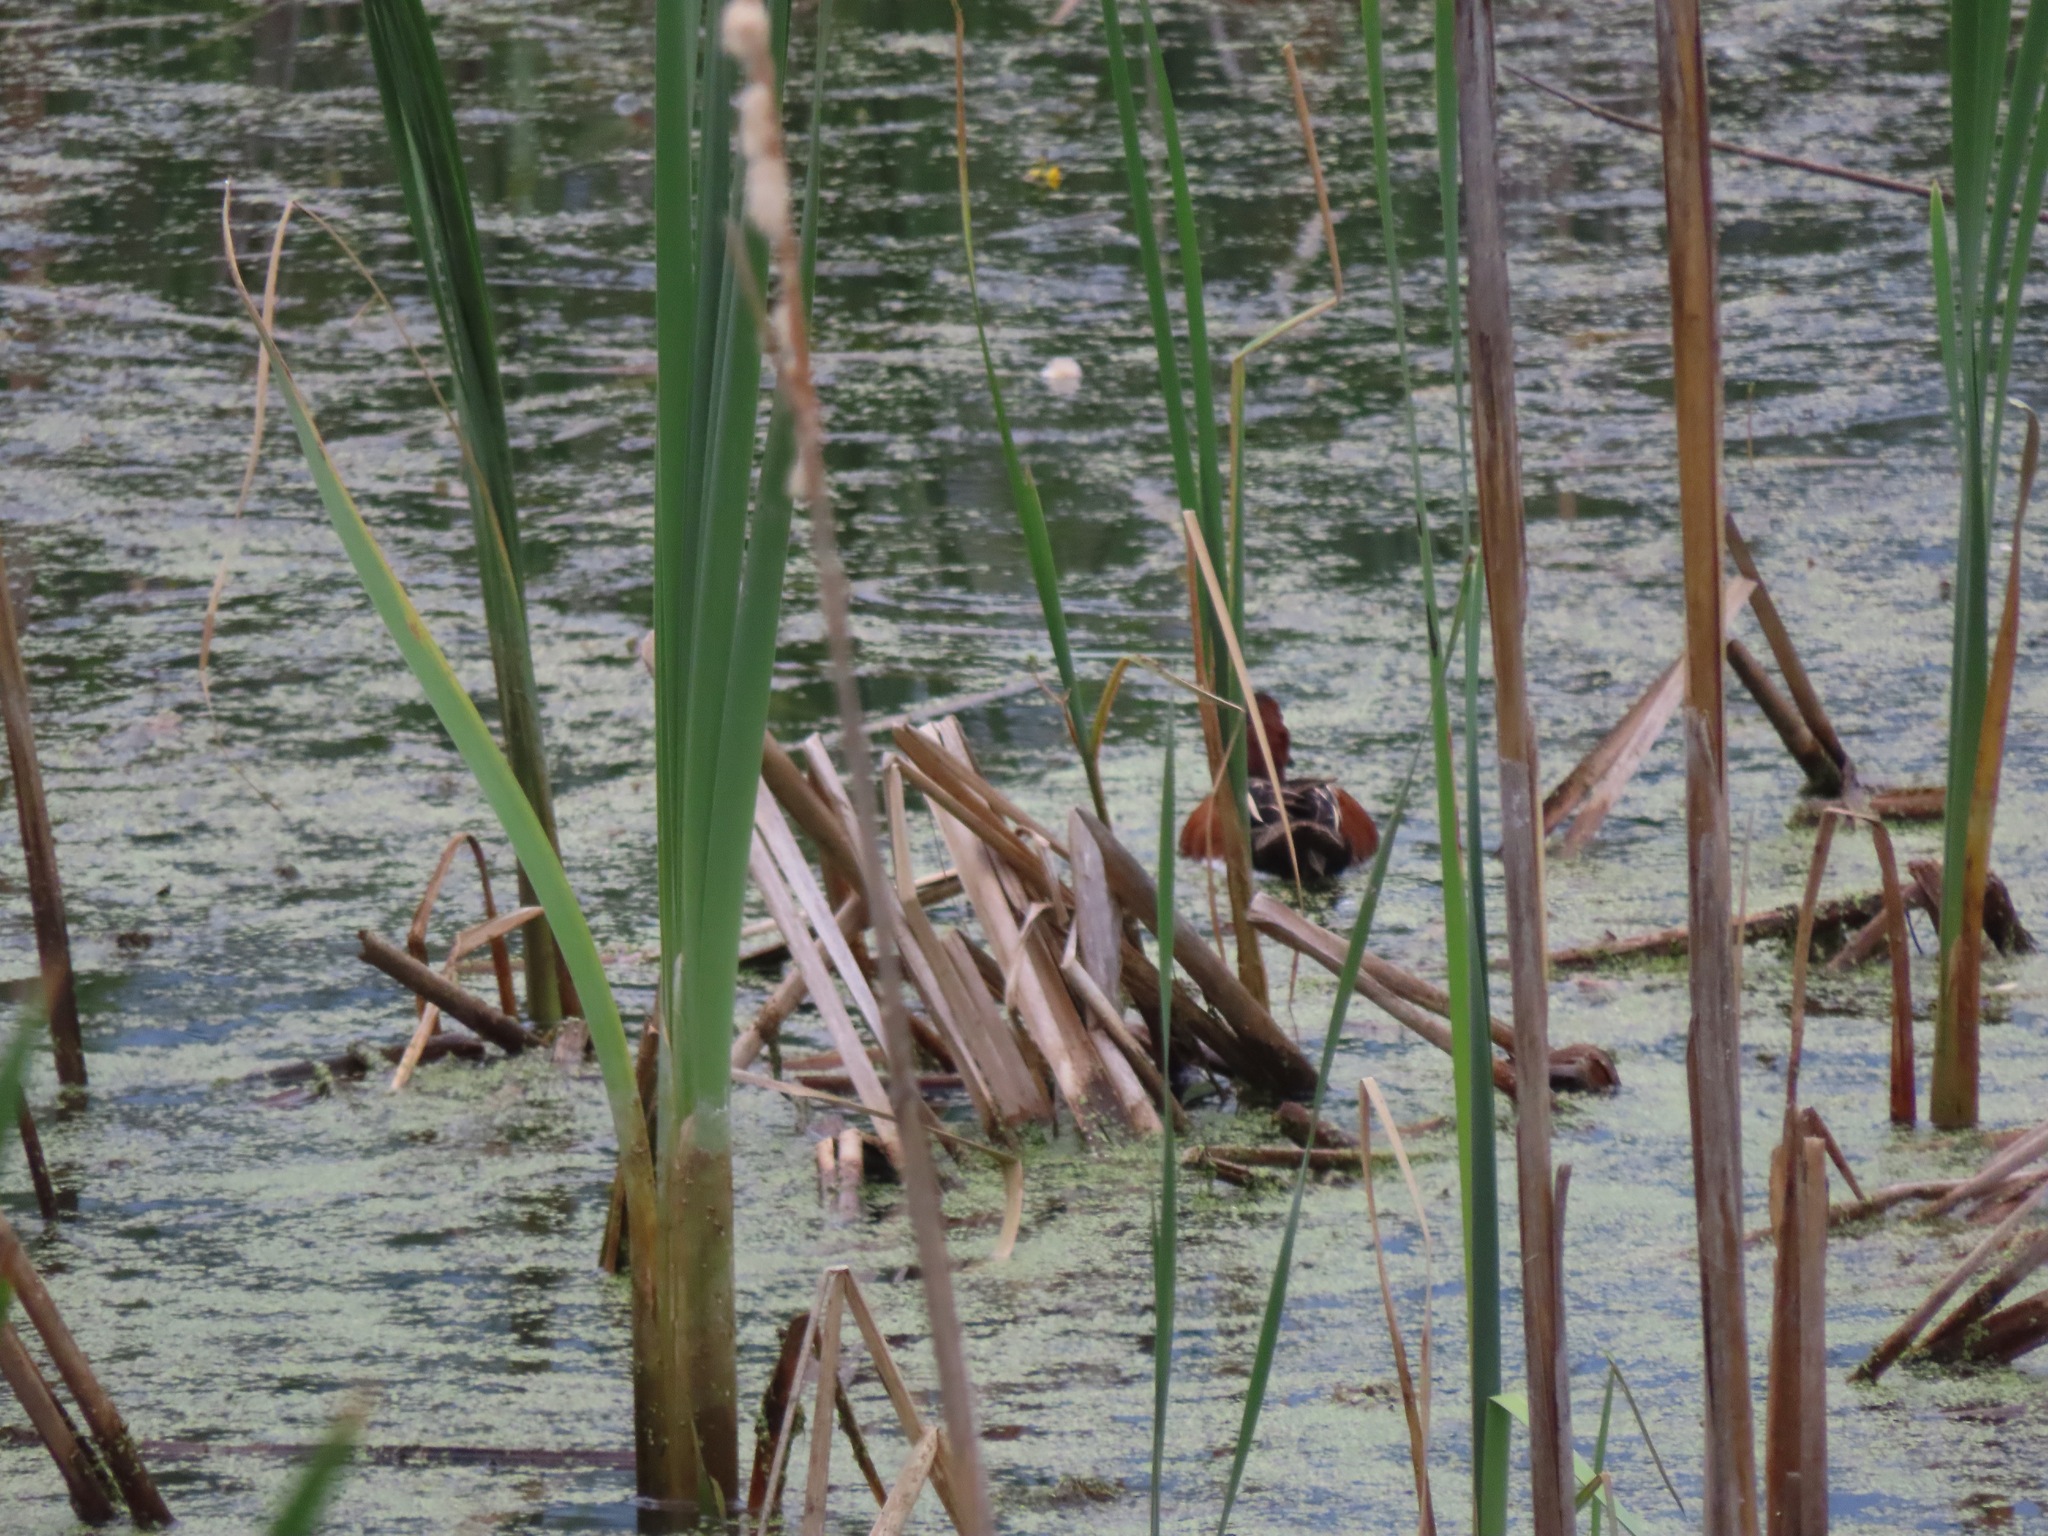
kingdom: Animalia
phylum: Chordata
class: Aves
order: Anseriformes
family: Anatidae
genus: Spatula
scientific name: Spatula cyanoptera
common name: Cinnamon teal
